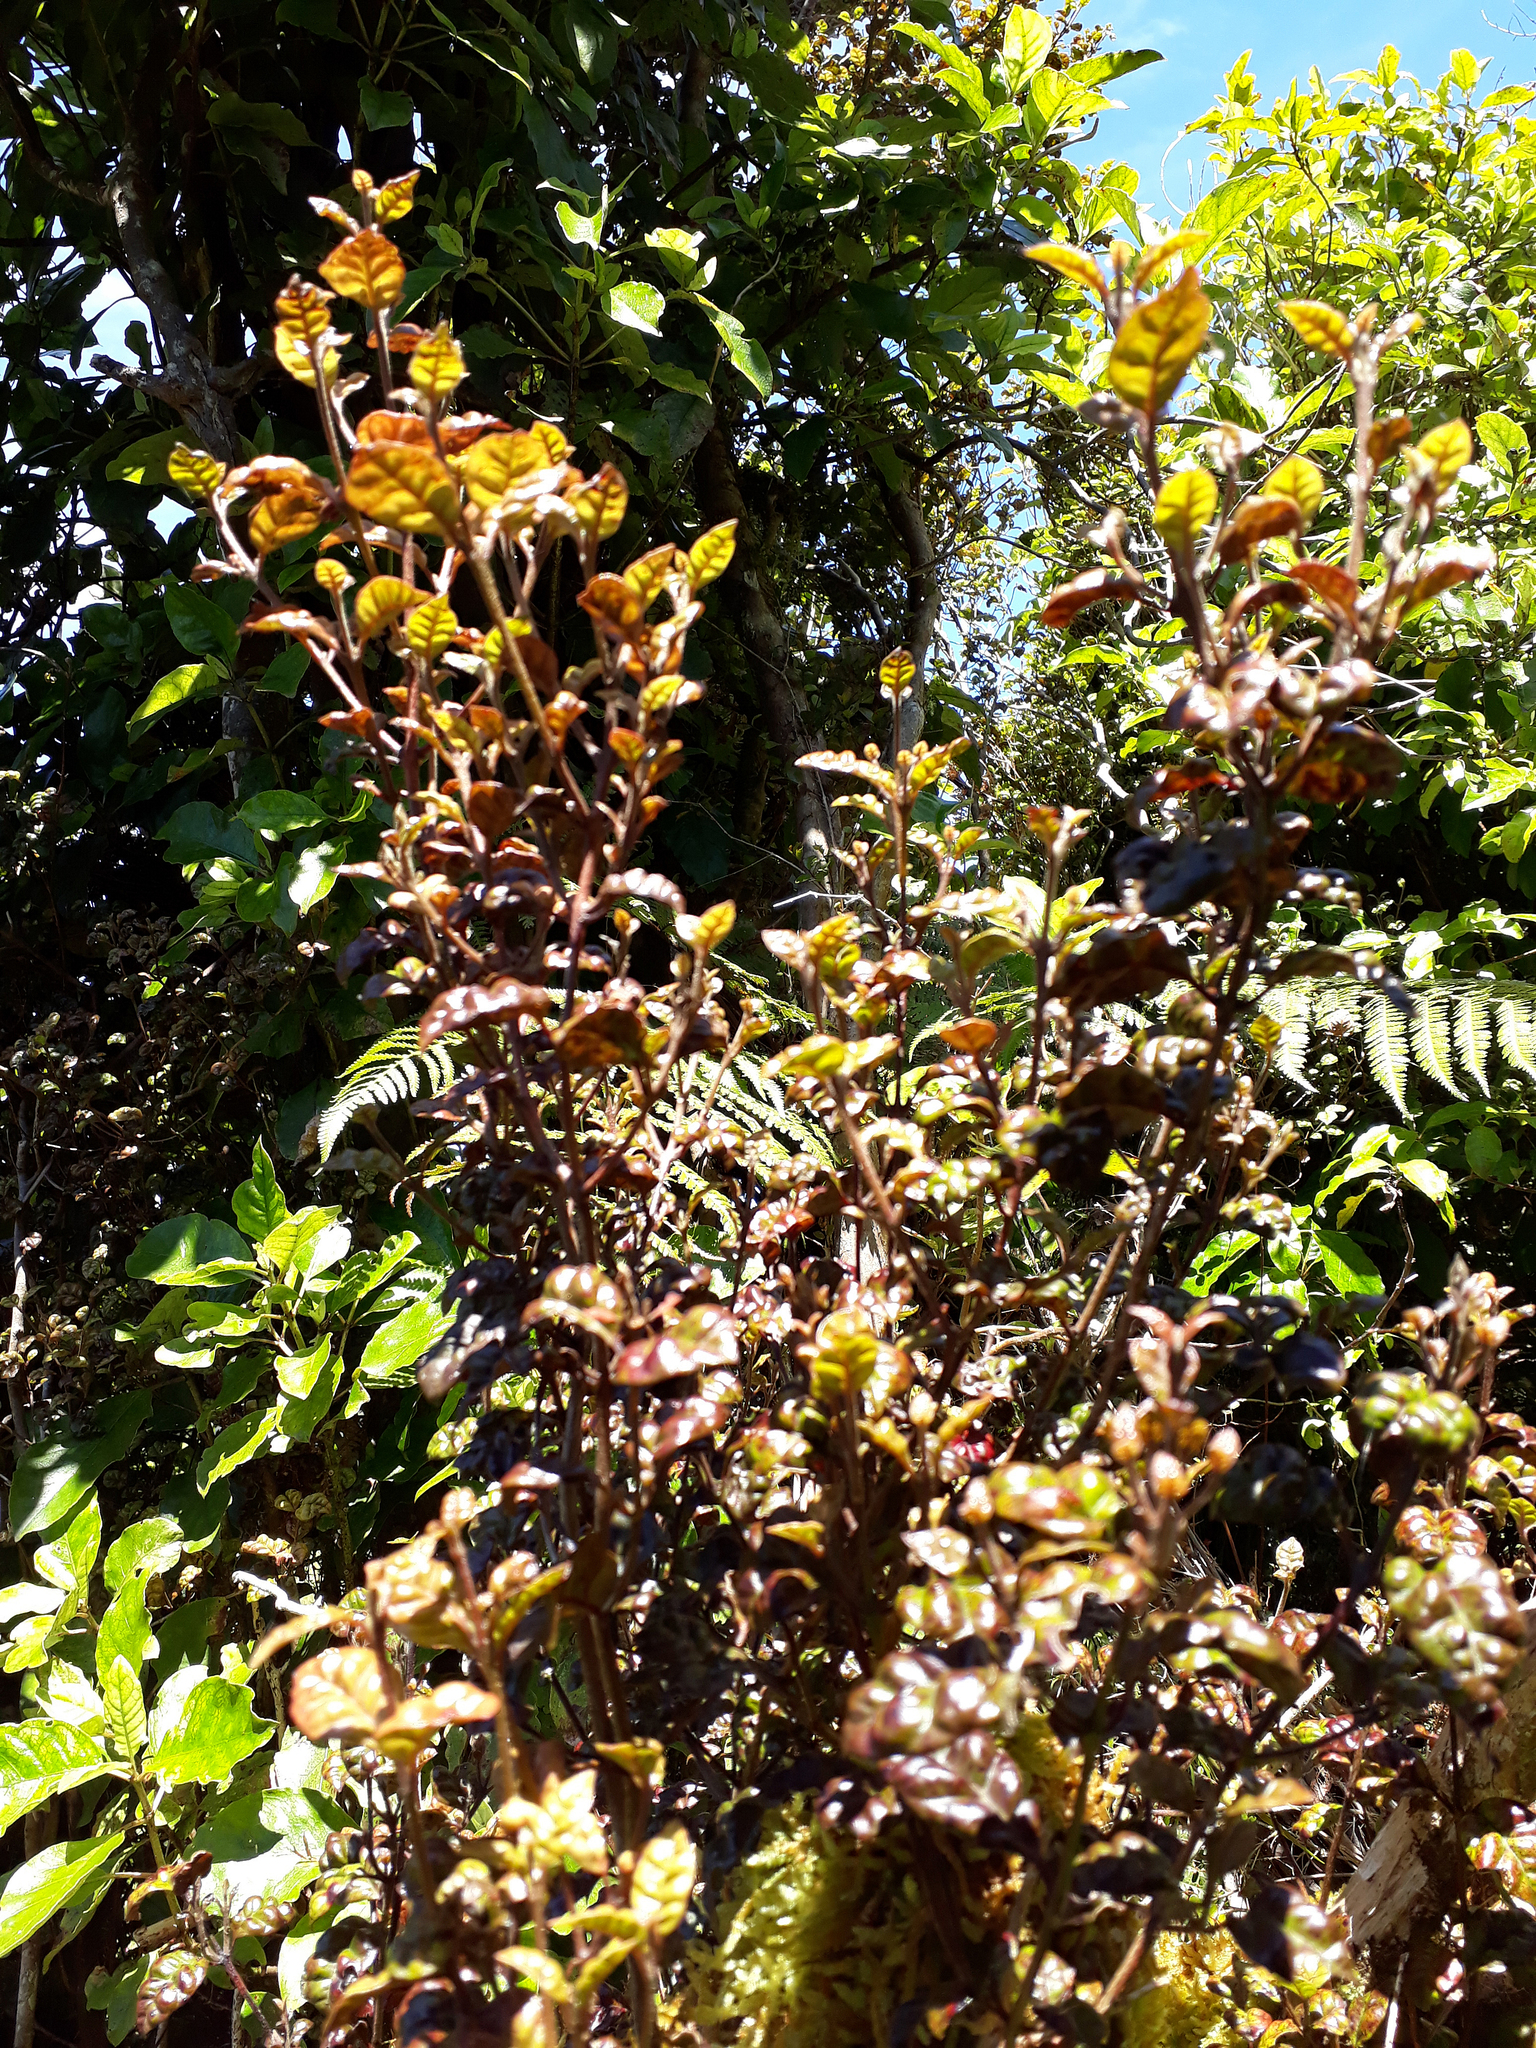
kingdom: Plantae
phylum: Tracheophyta
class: Magnoliopsida
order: Myrtales
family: Myrtaceae
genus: Lophomyrtus
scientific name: Lophomyrtus bullata
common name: Rama rama
